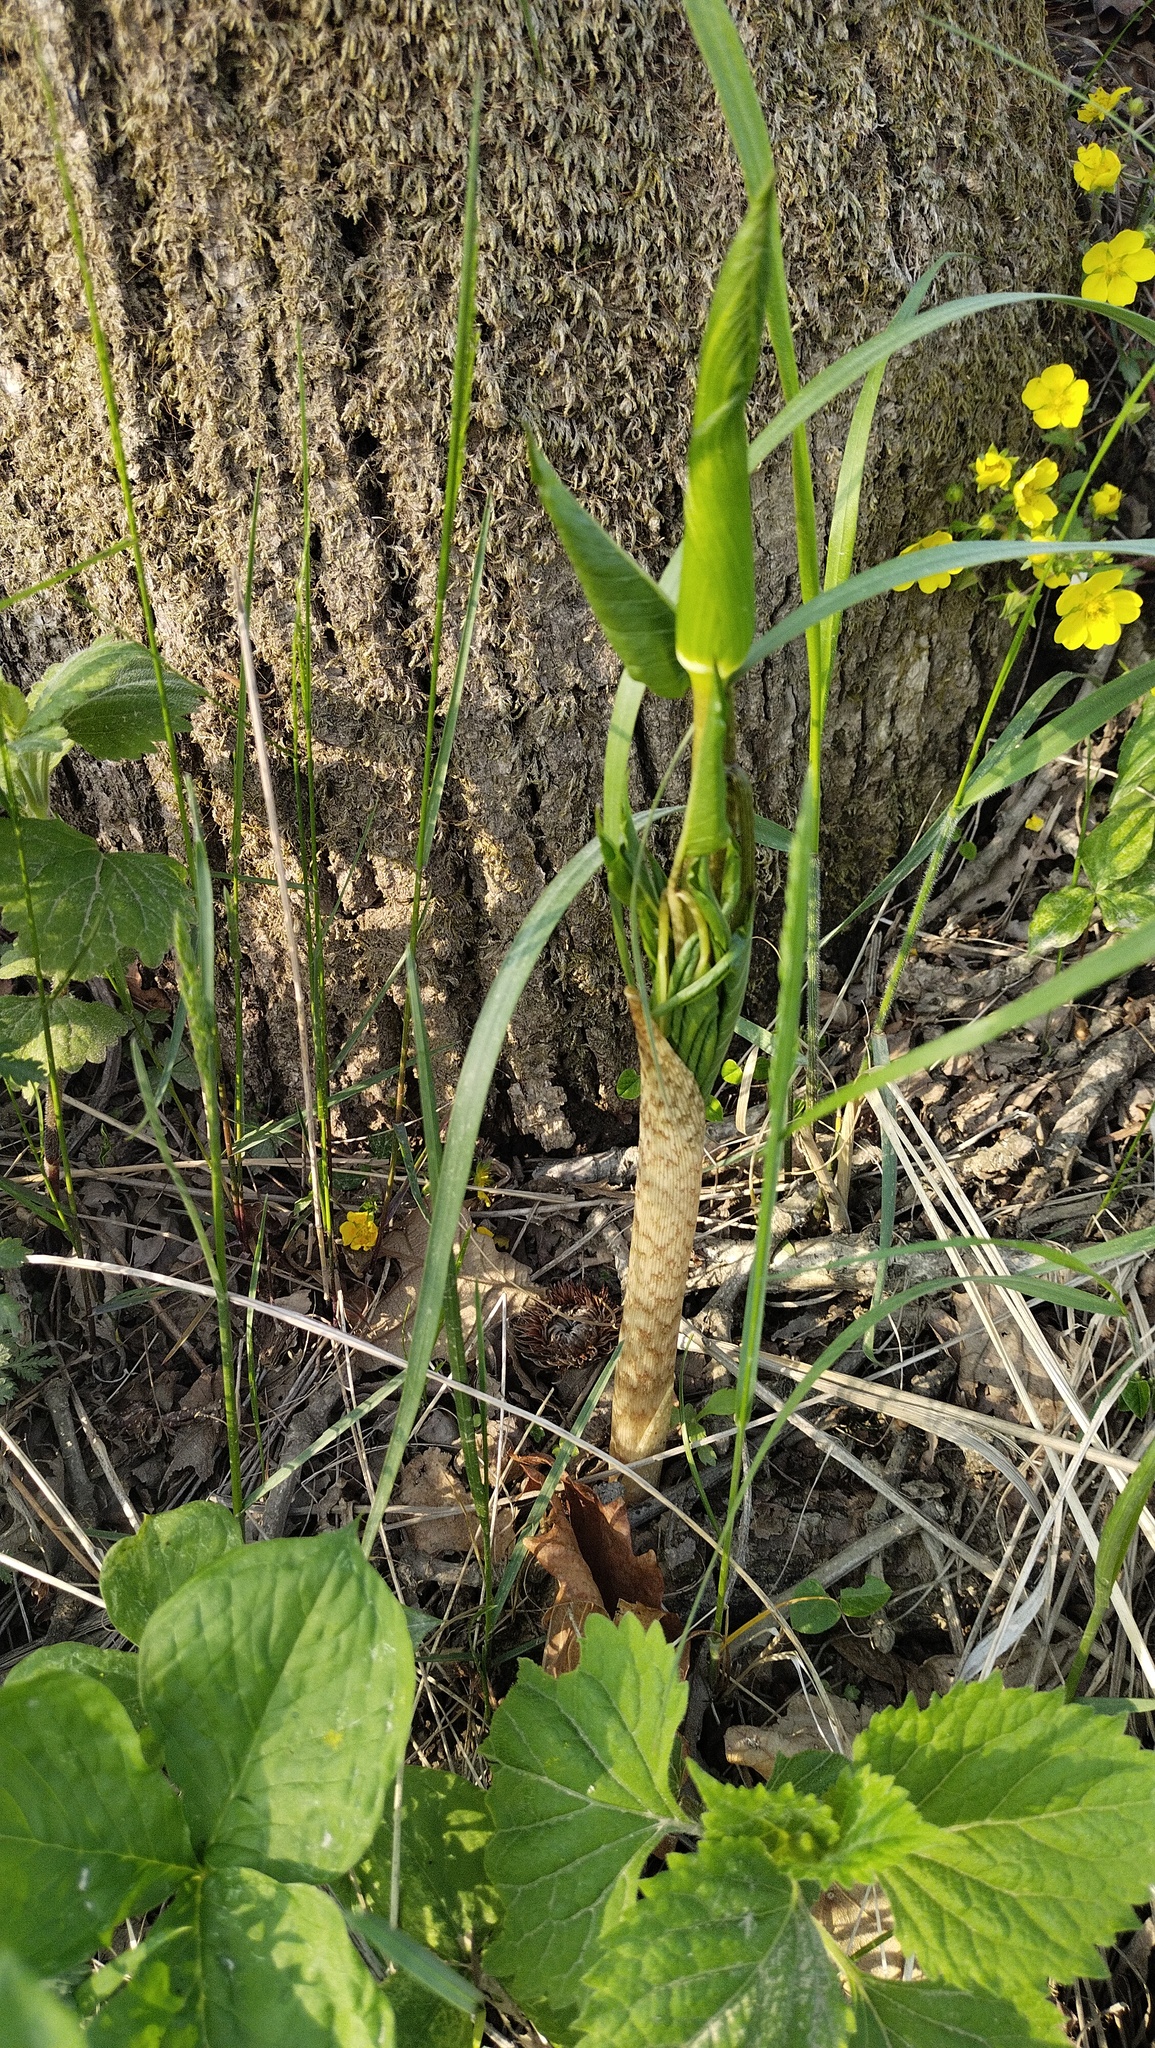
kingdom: Plantae
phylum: Tracheophyta
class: Liliopsida
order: Alismatales
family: Araceae
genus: Arisaema
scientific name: Arisaema serratum
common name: Japanese arisaema
